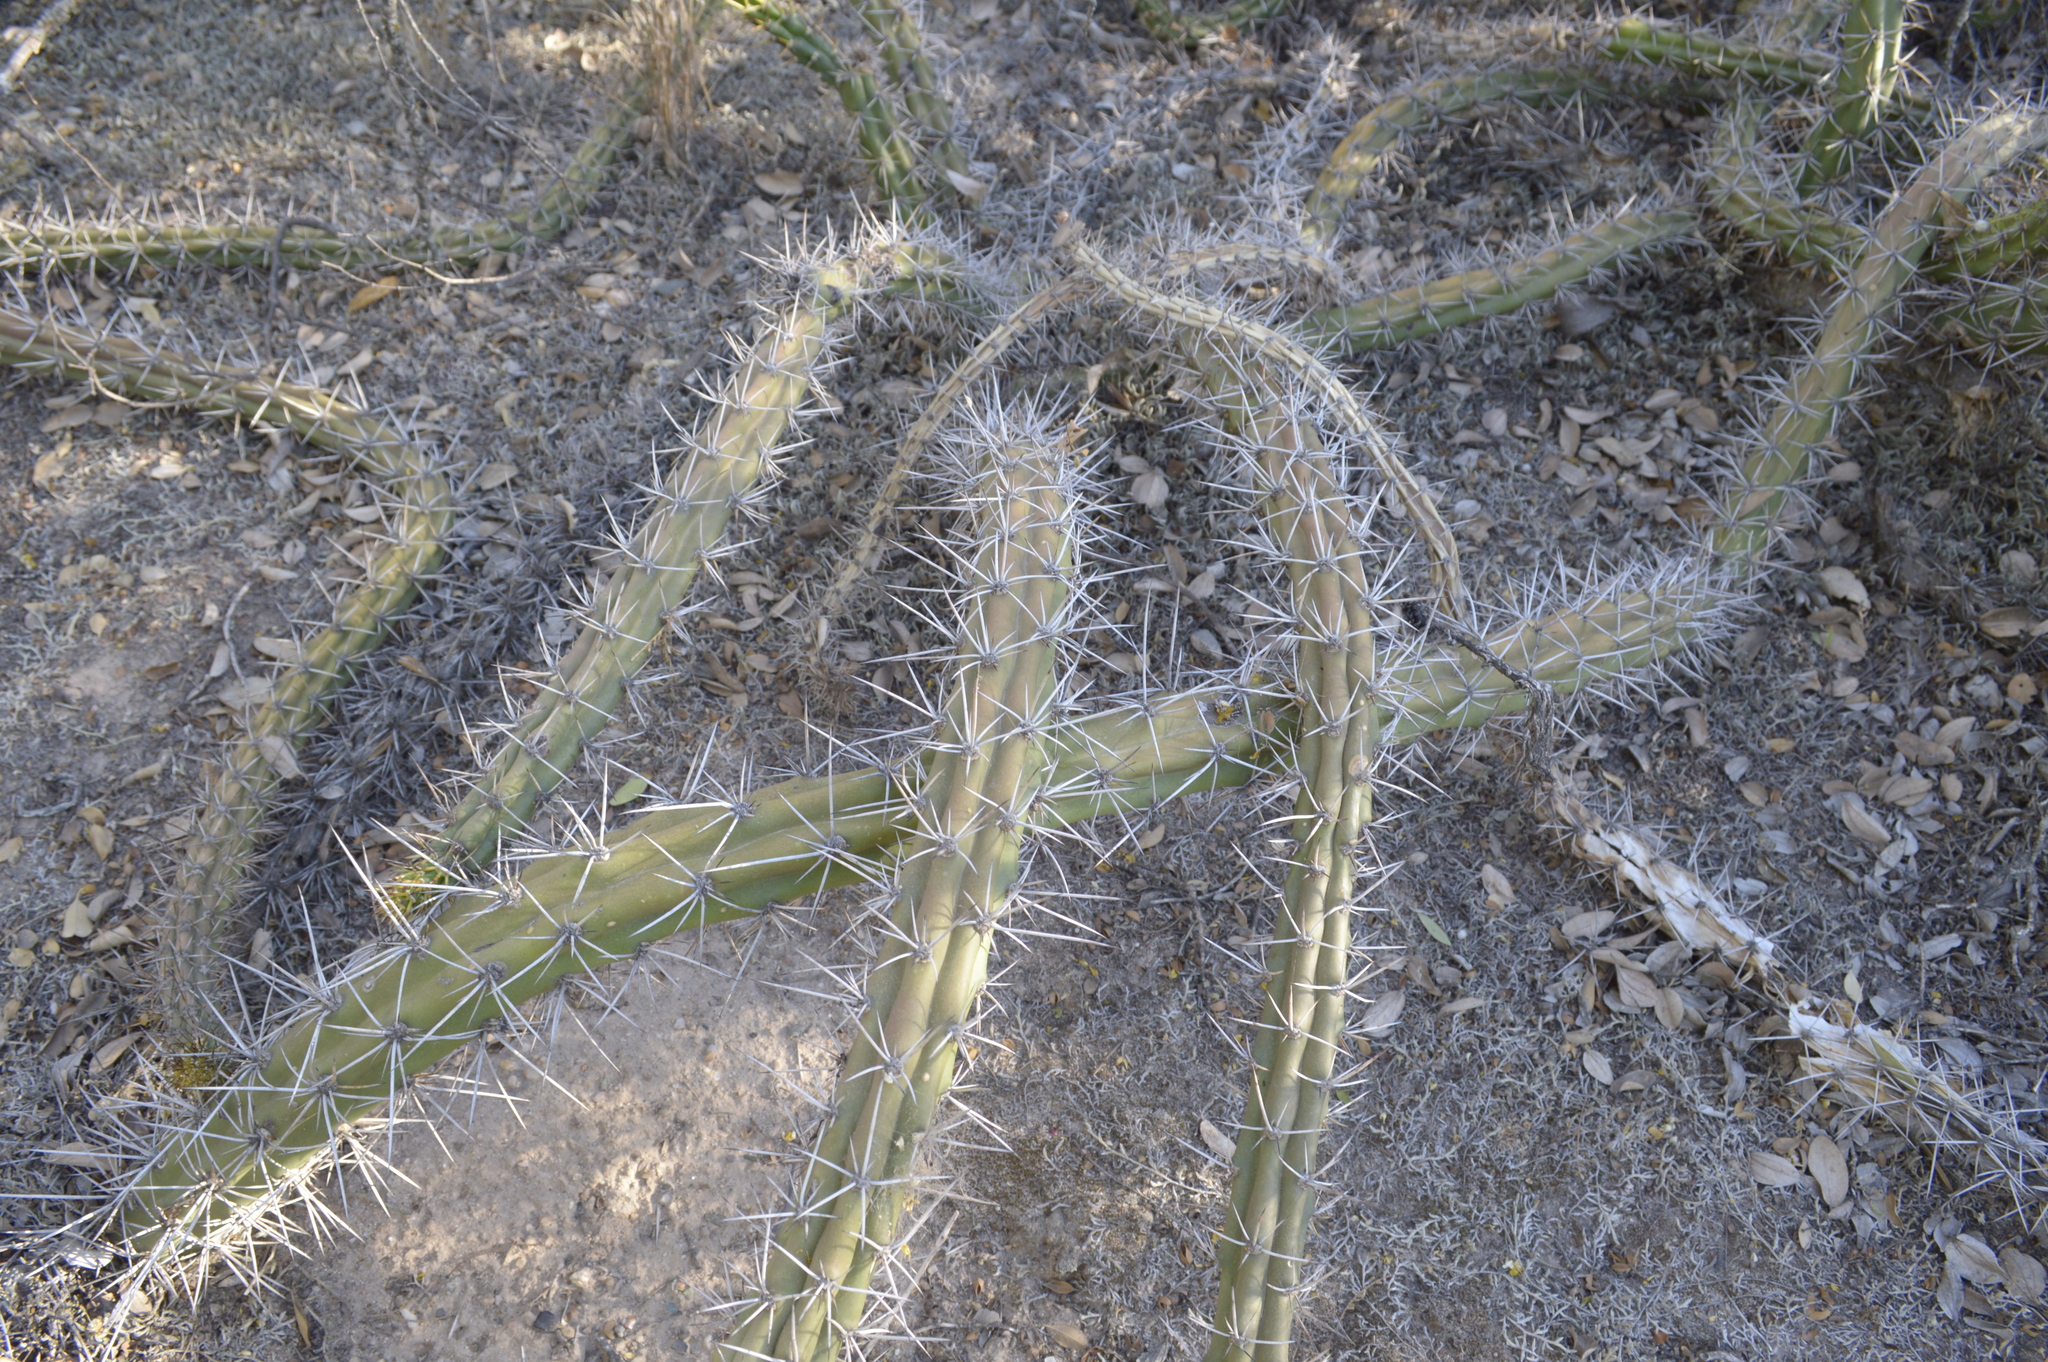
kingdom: Plantae
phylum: Tracheophyta
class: Magnoliopsida
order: Caryophyllales
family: Cactaceae
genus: Harrisia
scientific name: Harrisia pomanensis
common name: Midnight-lady
